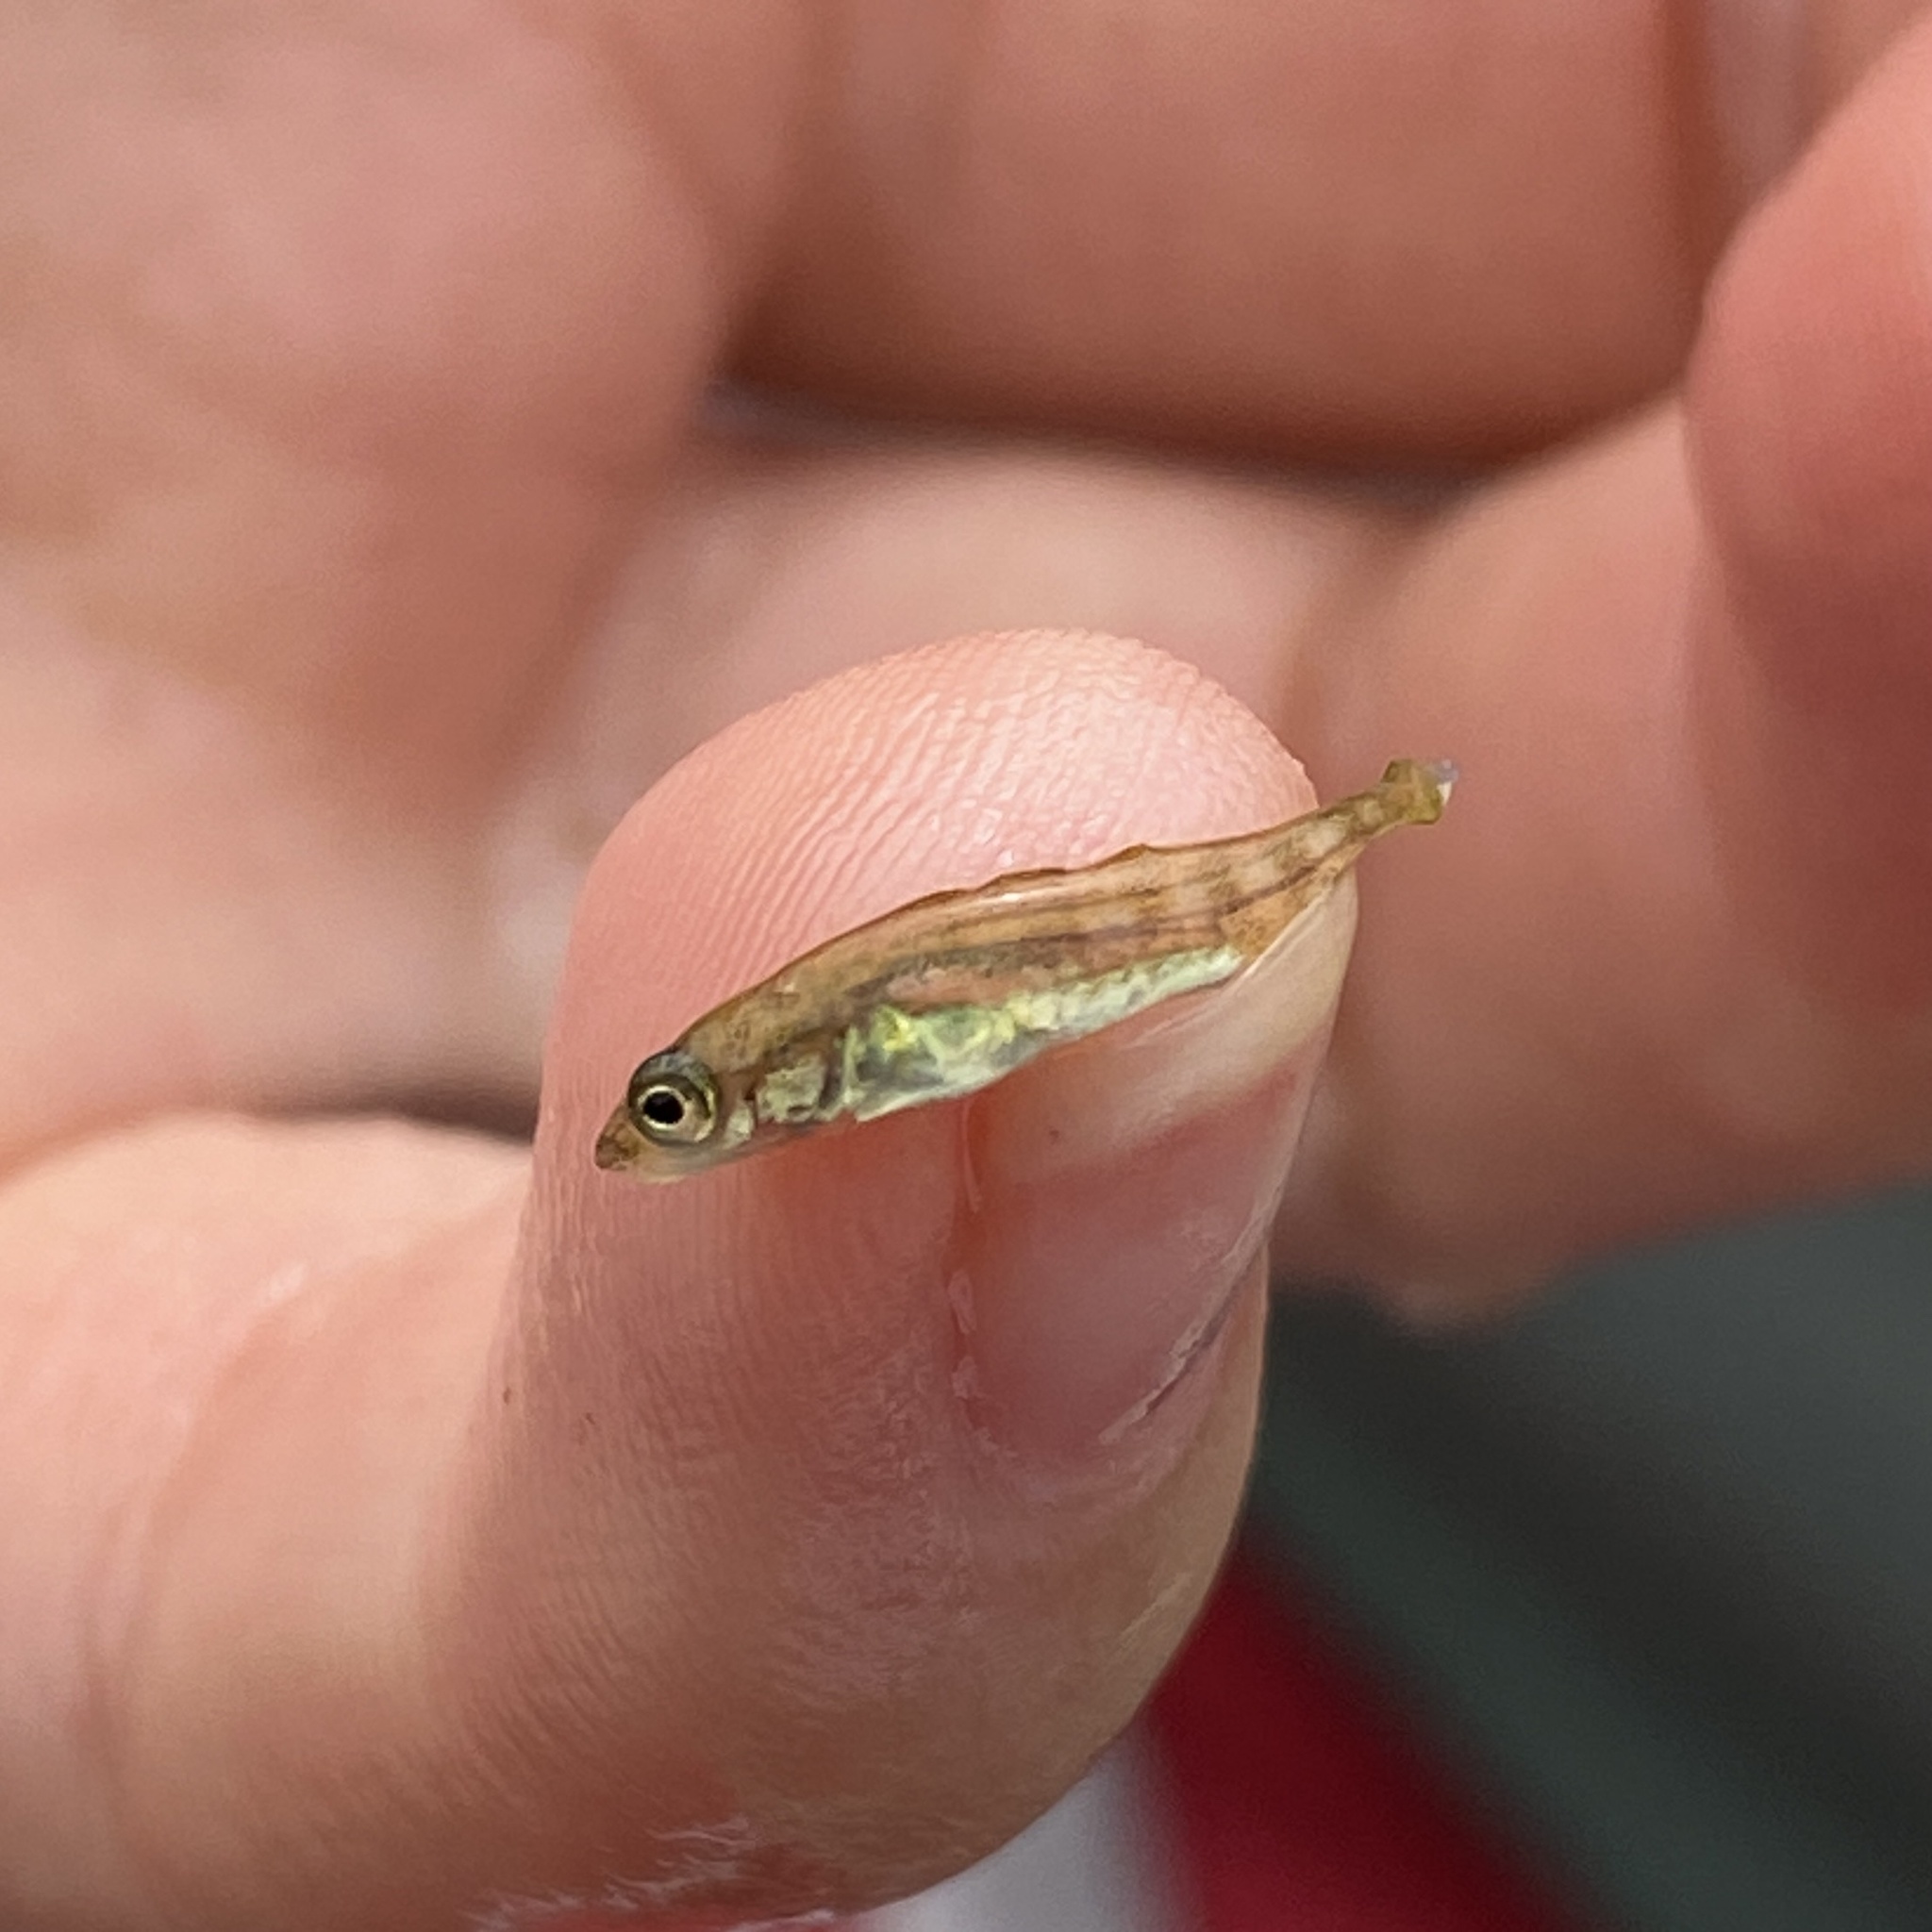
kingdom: Animalia
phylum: Chordata
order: Gasterosteiformes
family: Gasterosteidae
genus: Gasterosteus
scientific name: Gasterosteus aculeatus
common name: Three-spined stickleback
